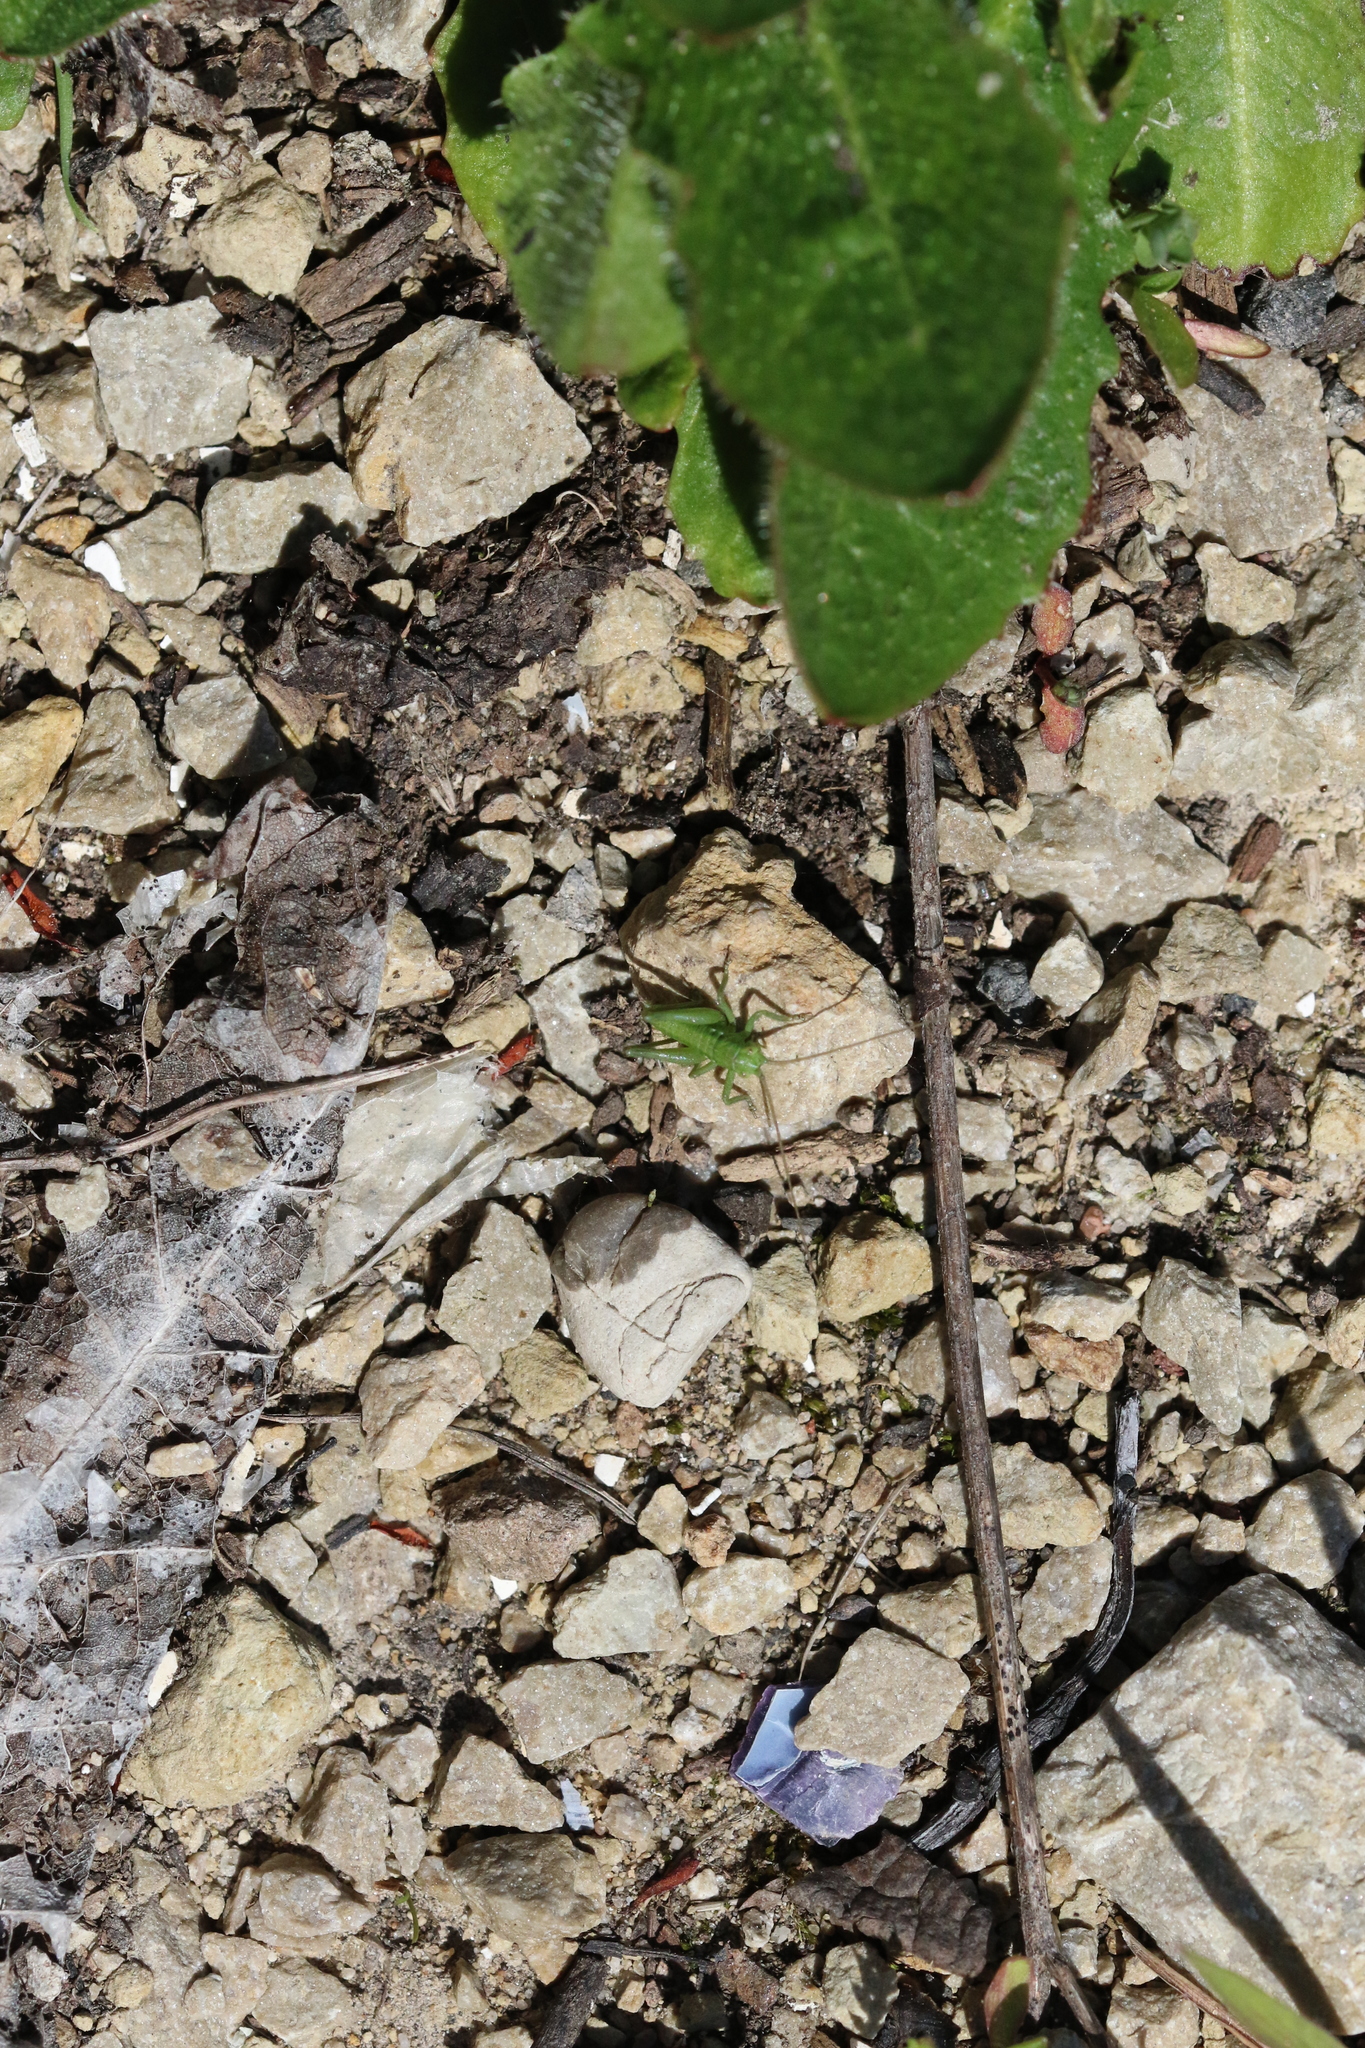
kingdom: Animalia
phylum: Arthropoda
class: Insecta
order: Orthoptera
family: Tettigoniidae
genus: Tettigonia
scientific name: Tettigonia viridissima
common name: Great green bush-cricket
